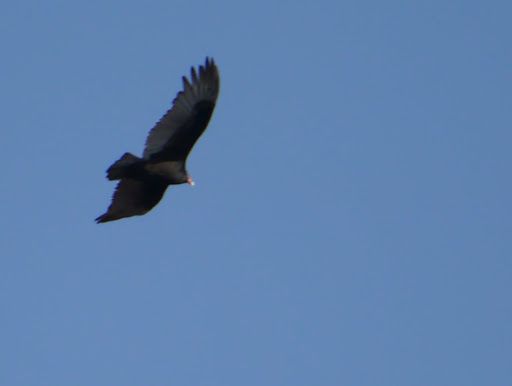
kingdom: Animalia
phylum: Chordata
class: Aves
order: Accipitriformes
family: Cathartidae
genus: Cathartes
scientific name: Cathartes aura
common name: Turkey vulture
